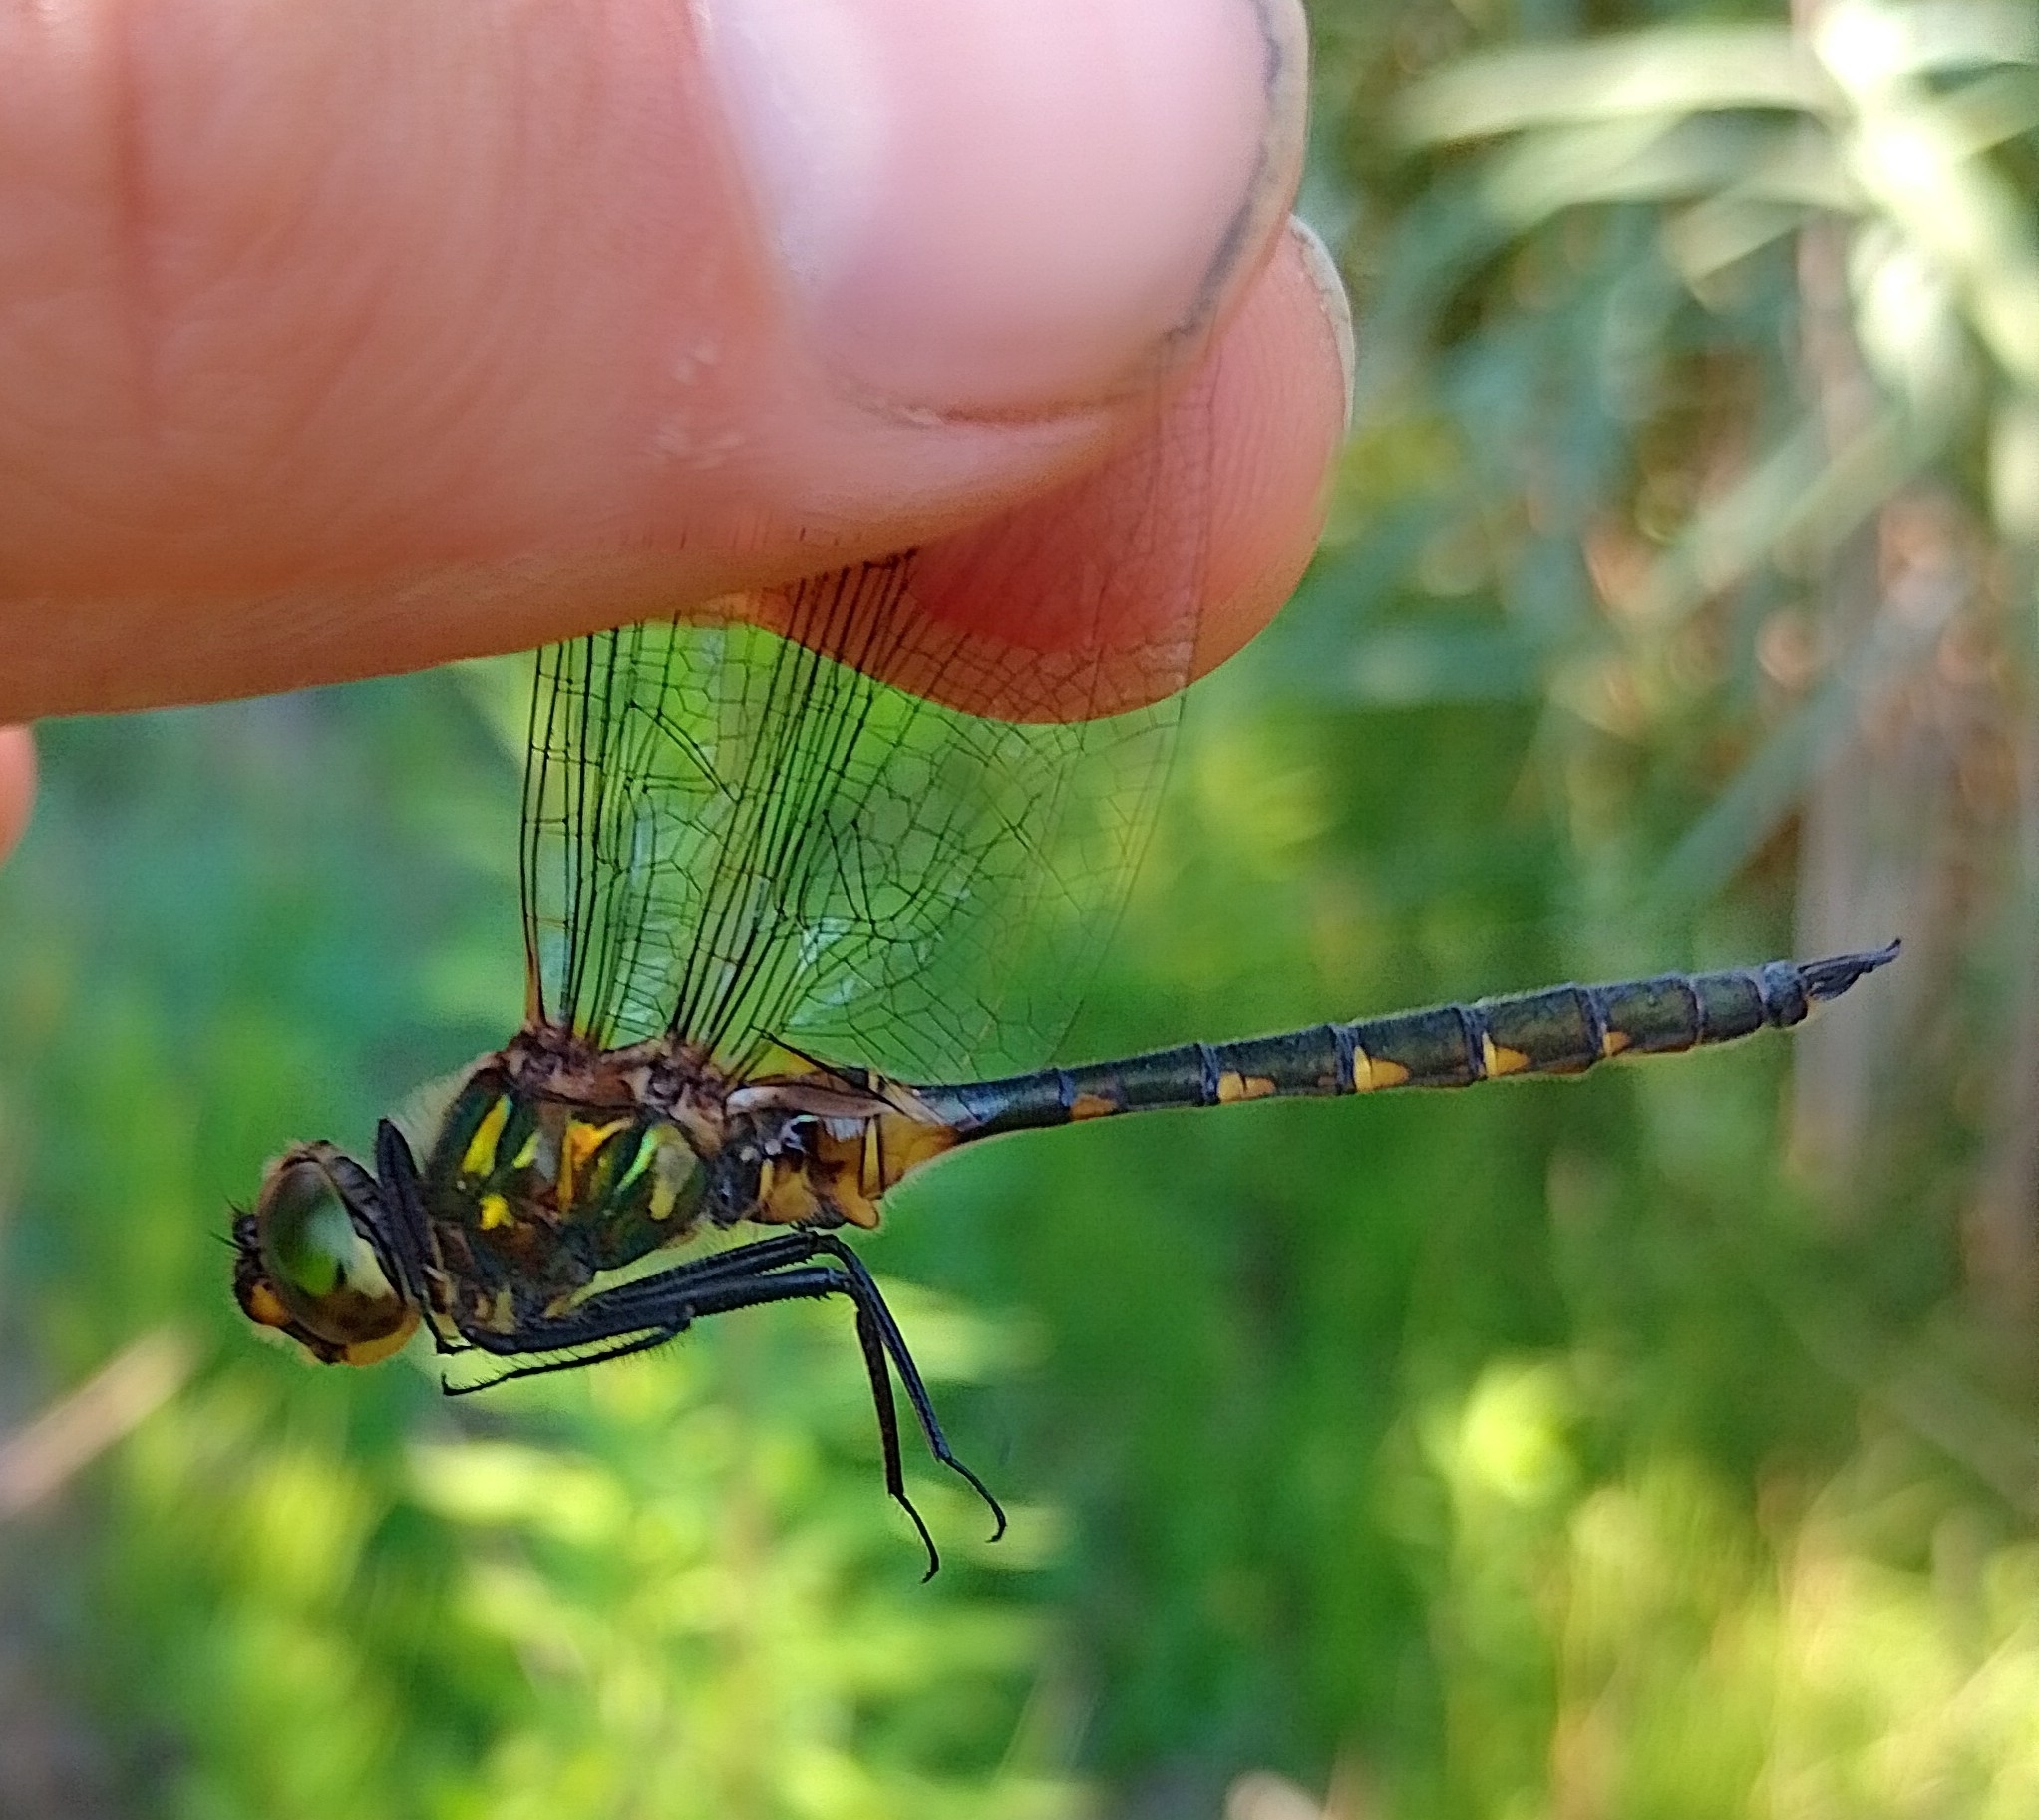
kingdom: Animalia
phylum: Arthropoda
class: Insecta
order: Odonata
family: Corduliidae
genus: Somatochlora
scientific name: Somatochlora flavomaculata
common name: Yellow-spotted emerald
